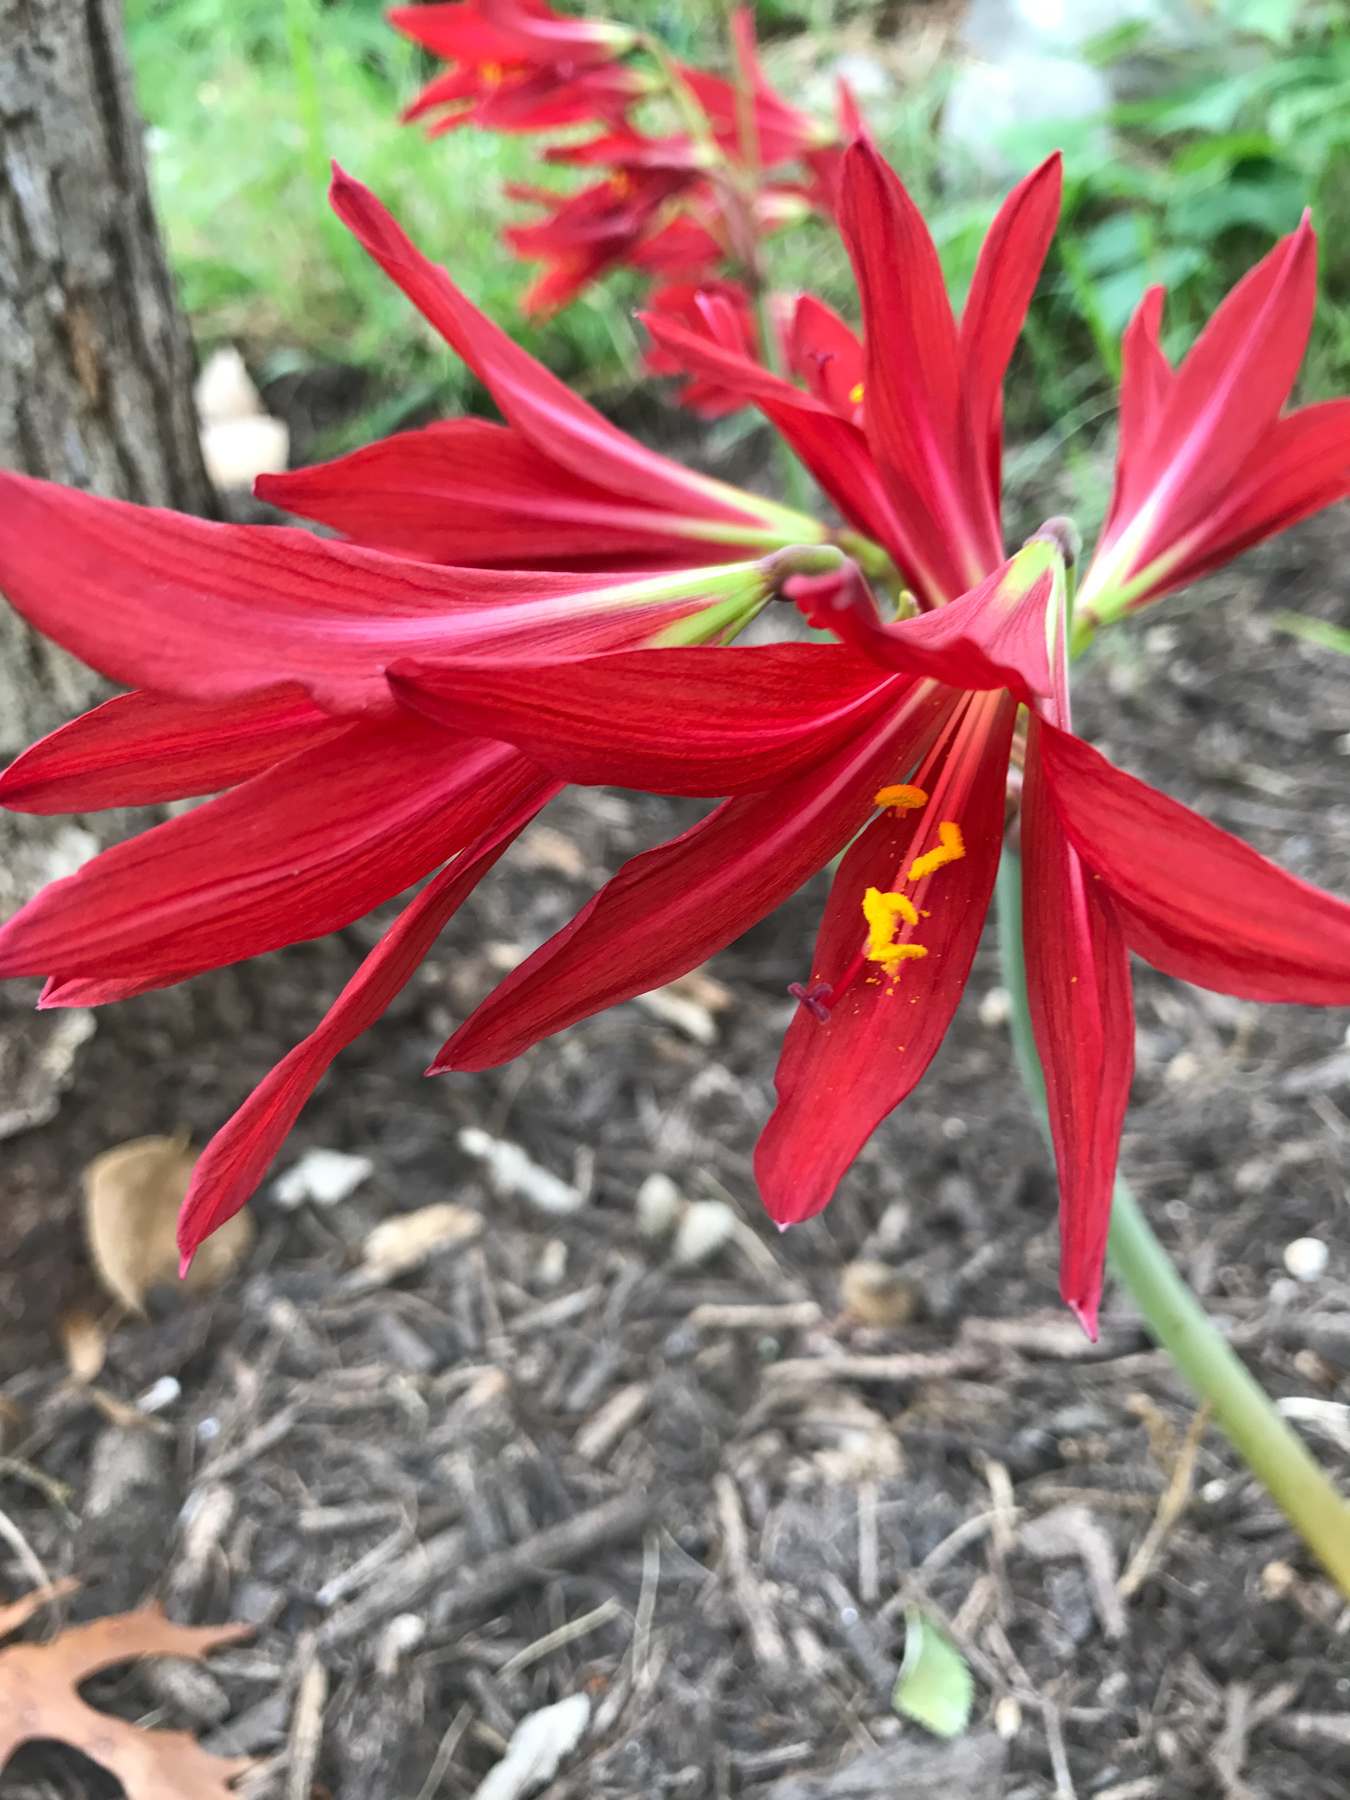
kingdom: Plantae
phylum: Tracheophyta
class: Liliopsida
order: Asparagales
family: Amaryllidaceae
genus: Zephyranthes
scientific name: Zephyranthes bifida
